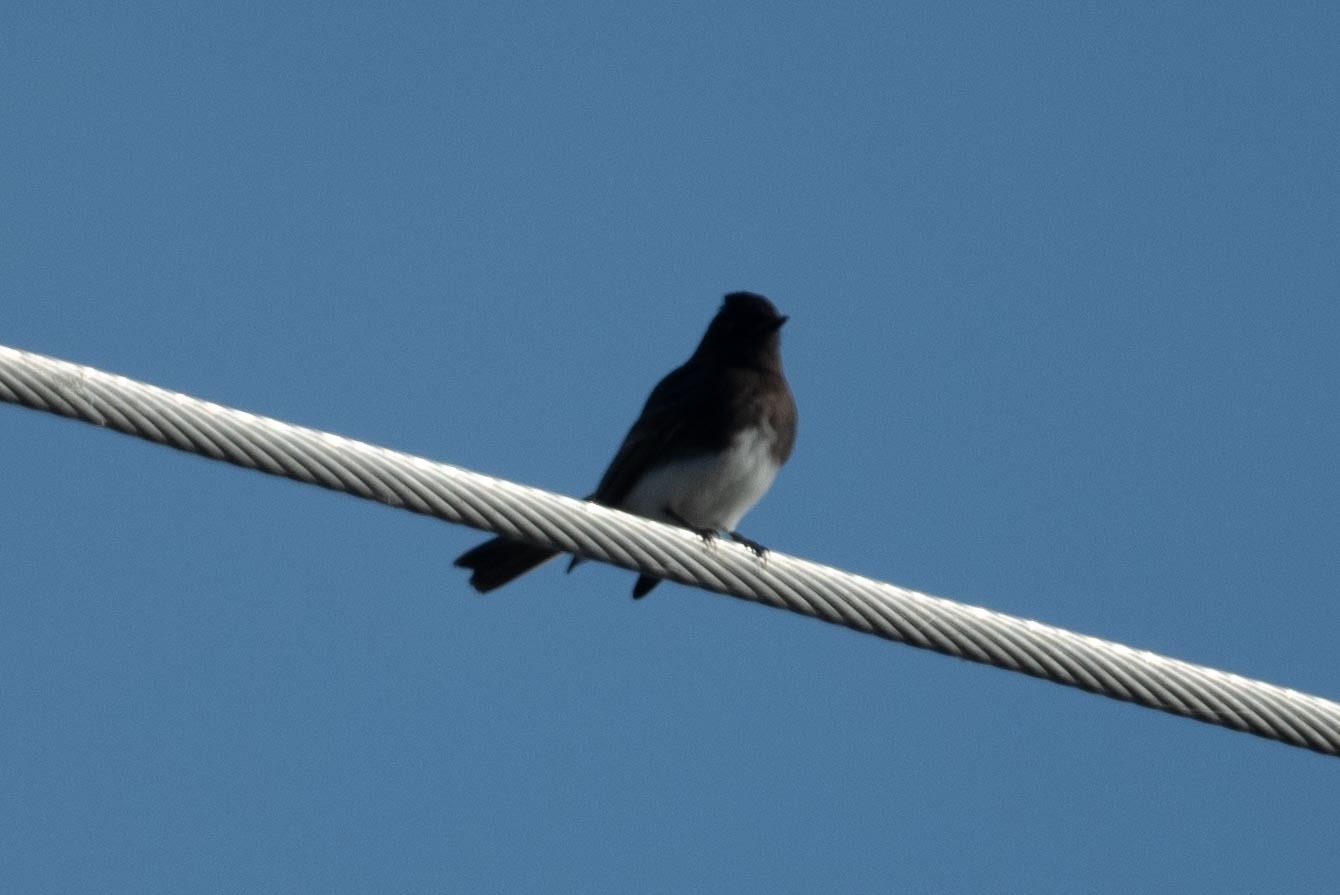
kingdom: Animalia
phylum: Chordata
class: Aves
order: Passeriformes
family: Tyrannidae
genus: Sayornis
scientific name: Sayornis nigricans
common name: Black phoebe
